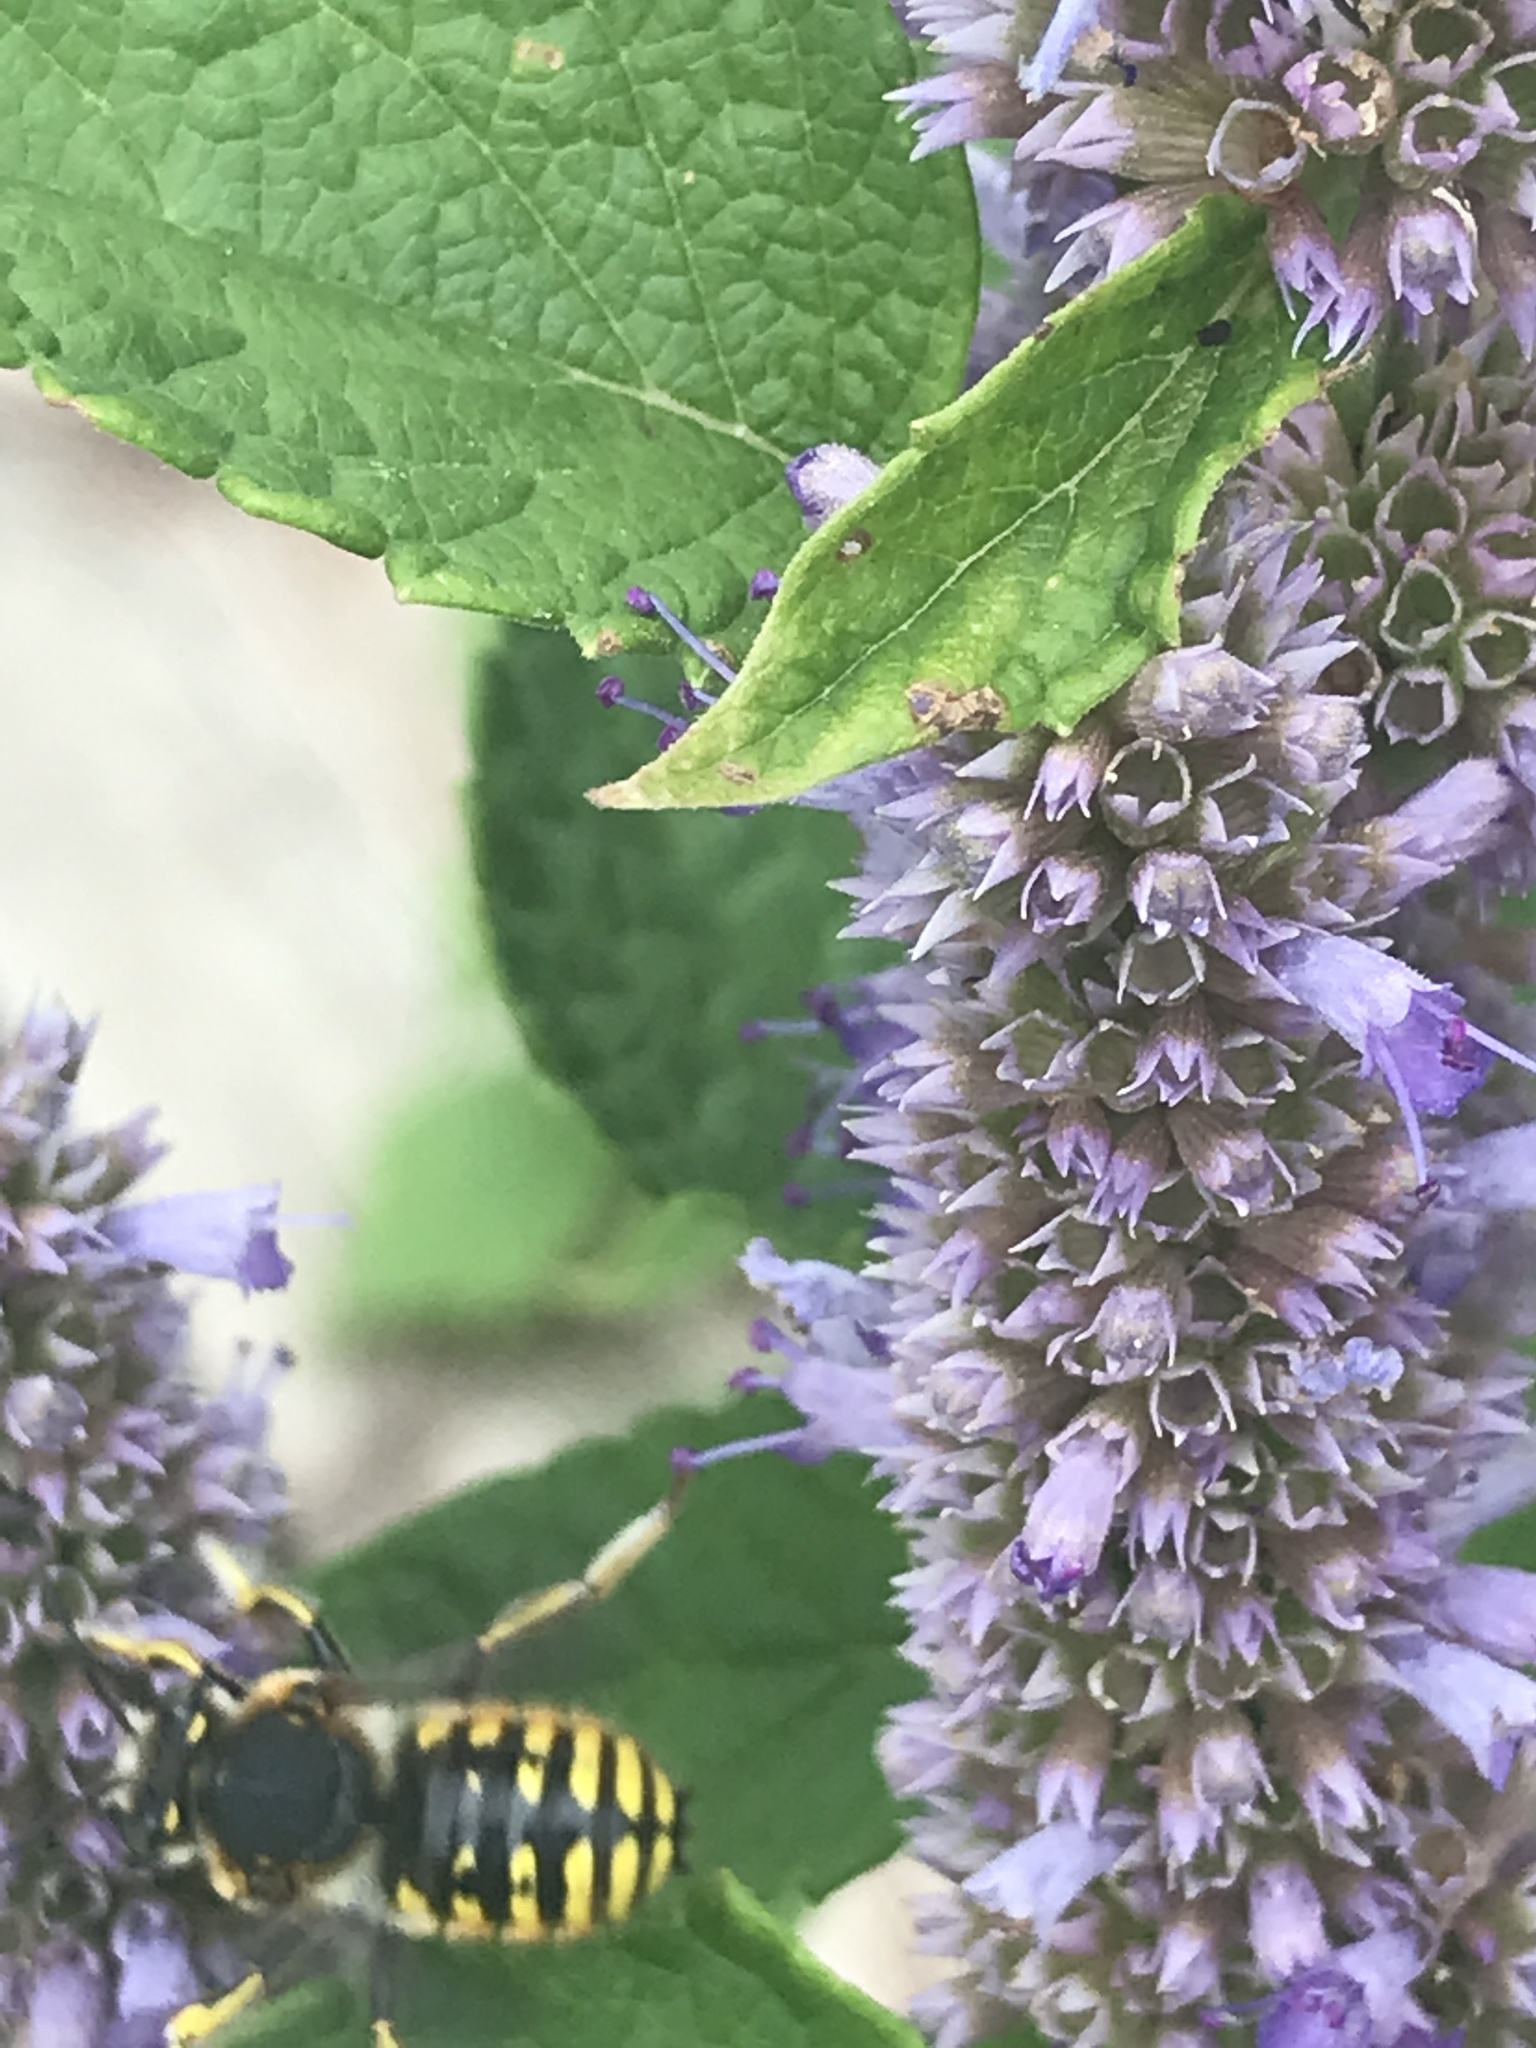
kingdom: Animalia
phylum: Arthropoda
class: Insecta
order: Hymenoptera
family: Megachilidae
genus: Anthidium
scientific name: Anthidium manicatum
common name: Wool carder bee
